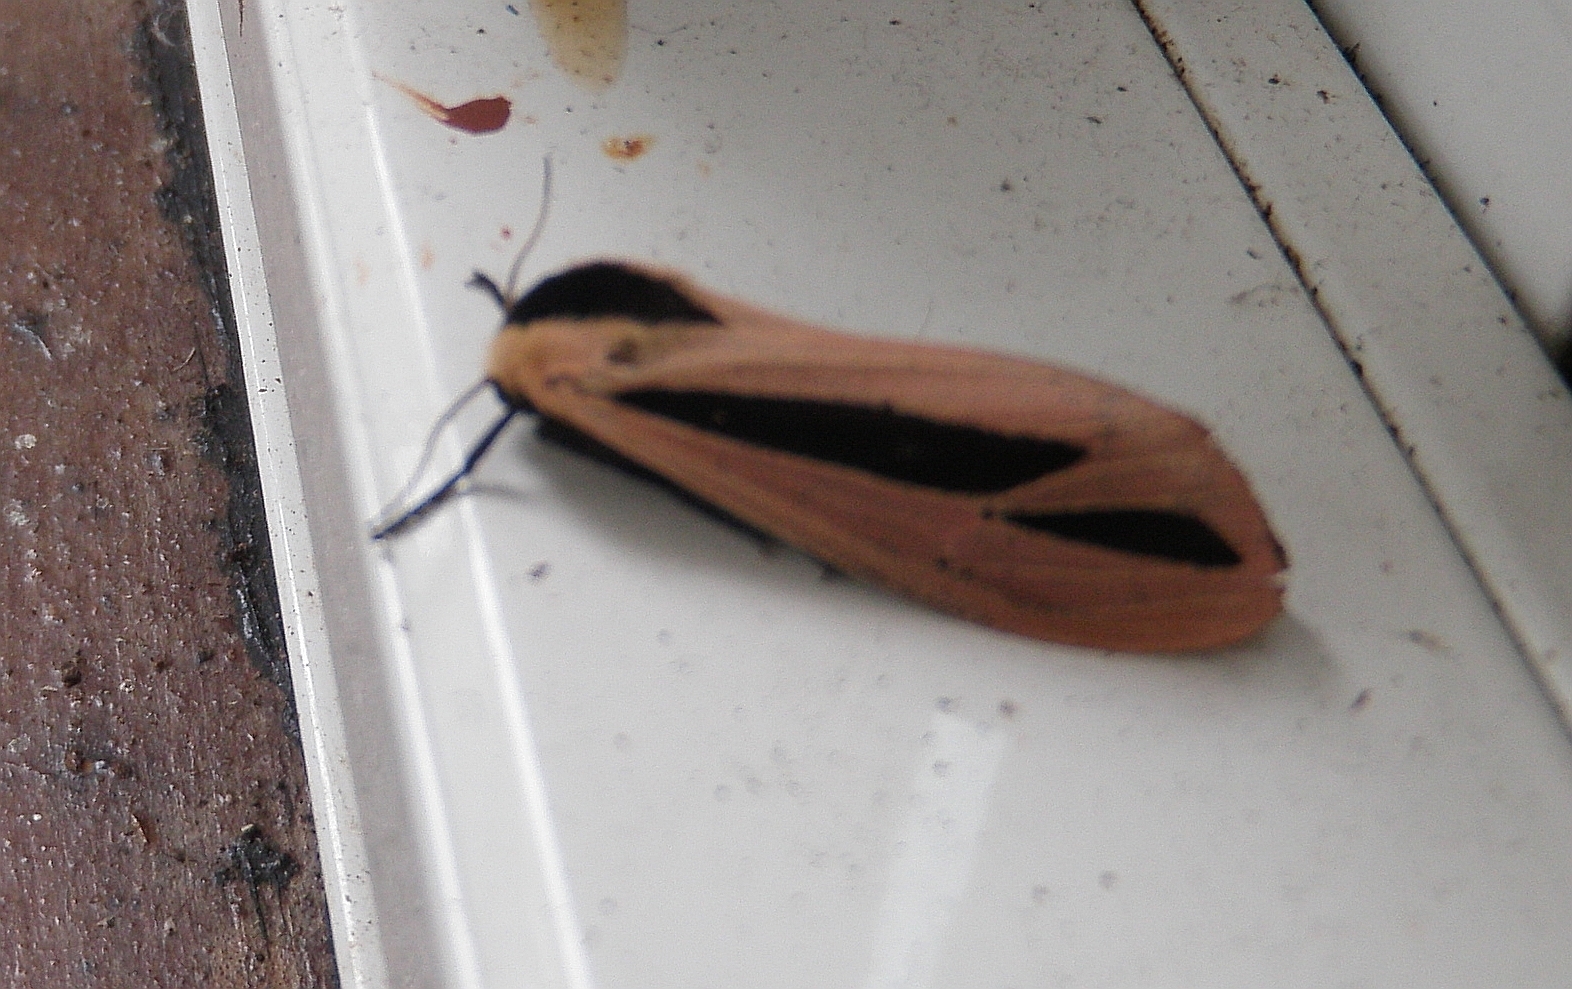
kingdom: Animalia
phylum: Arthropoda
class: Insecta
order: Lepidoptera
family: Erebidae
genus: Creatonotos
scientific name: Creatonotos gangis
